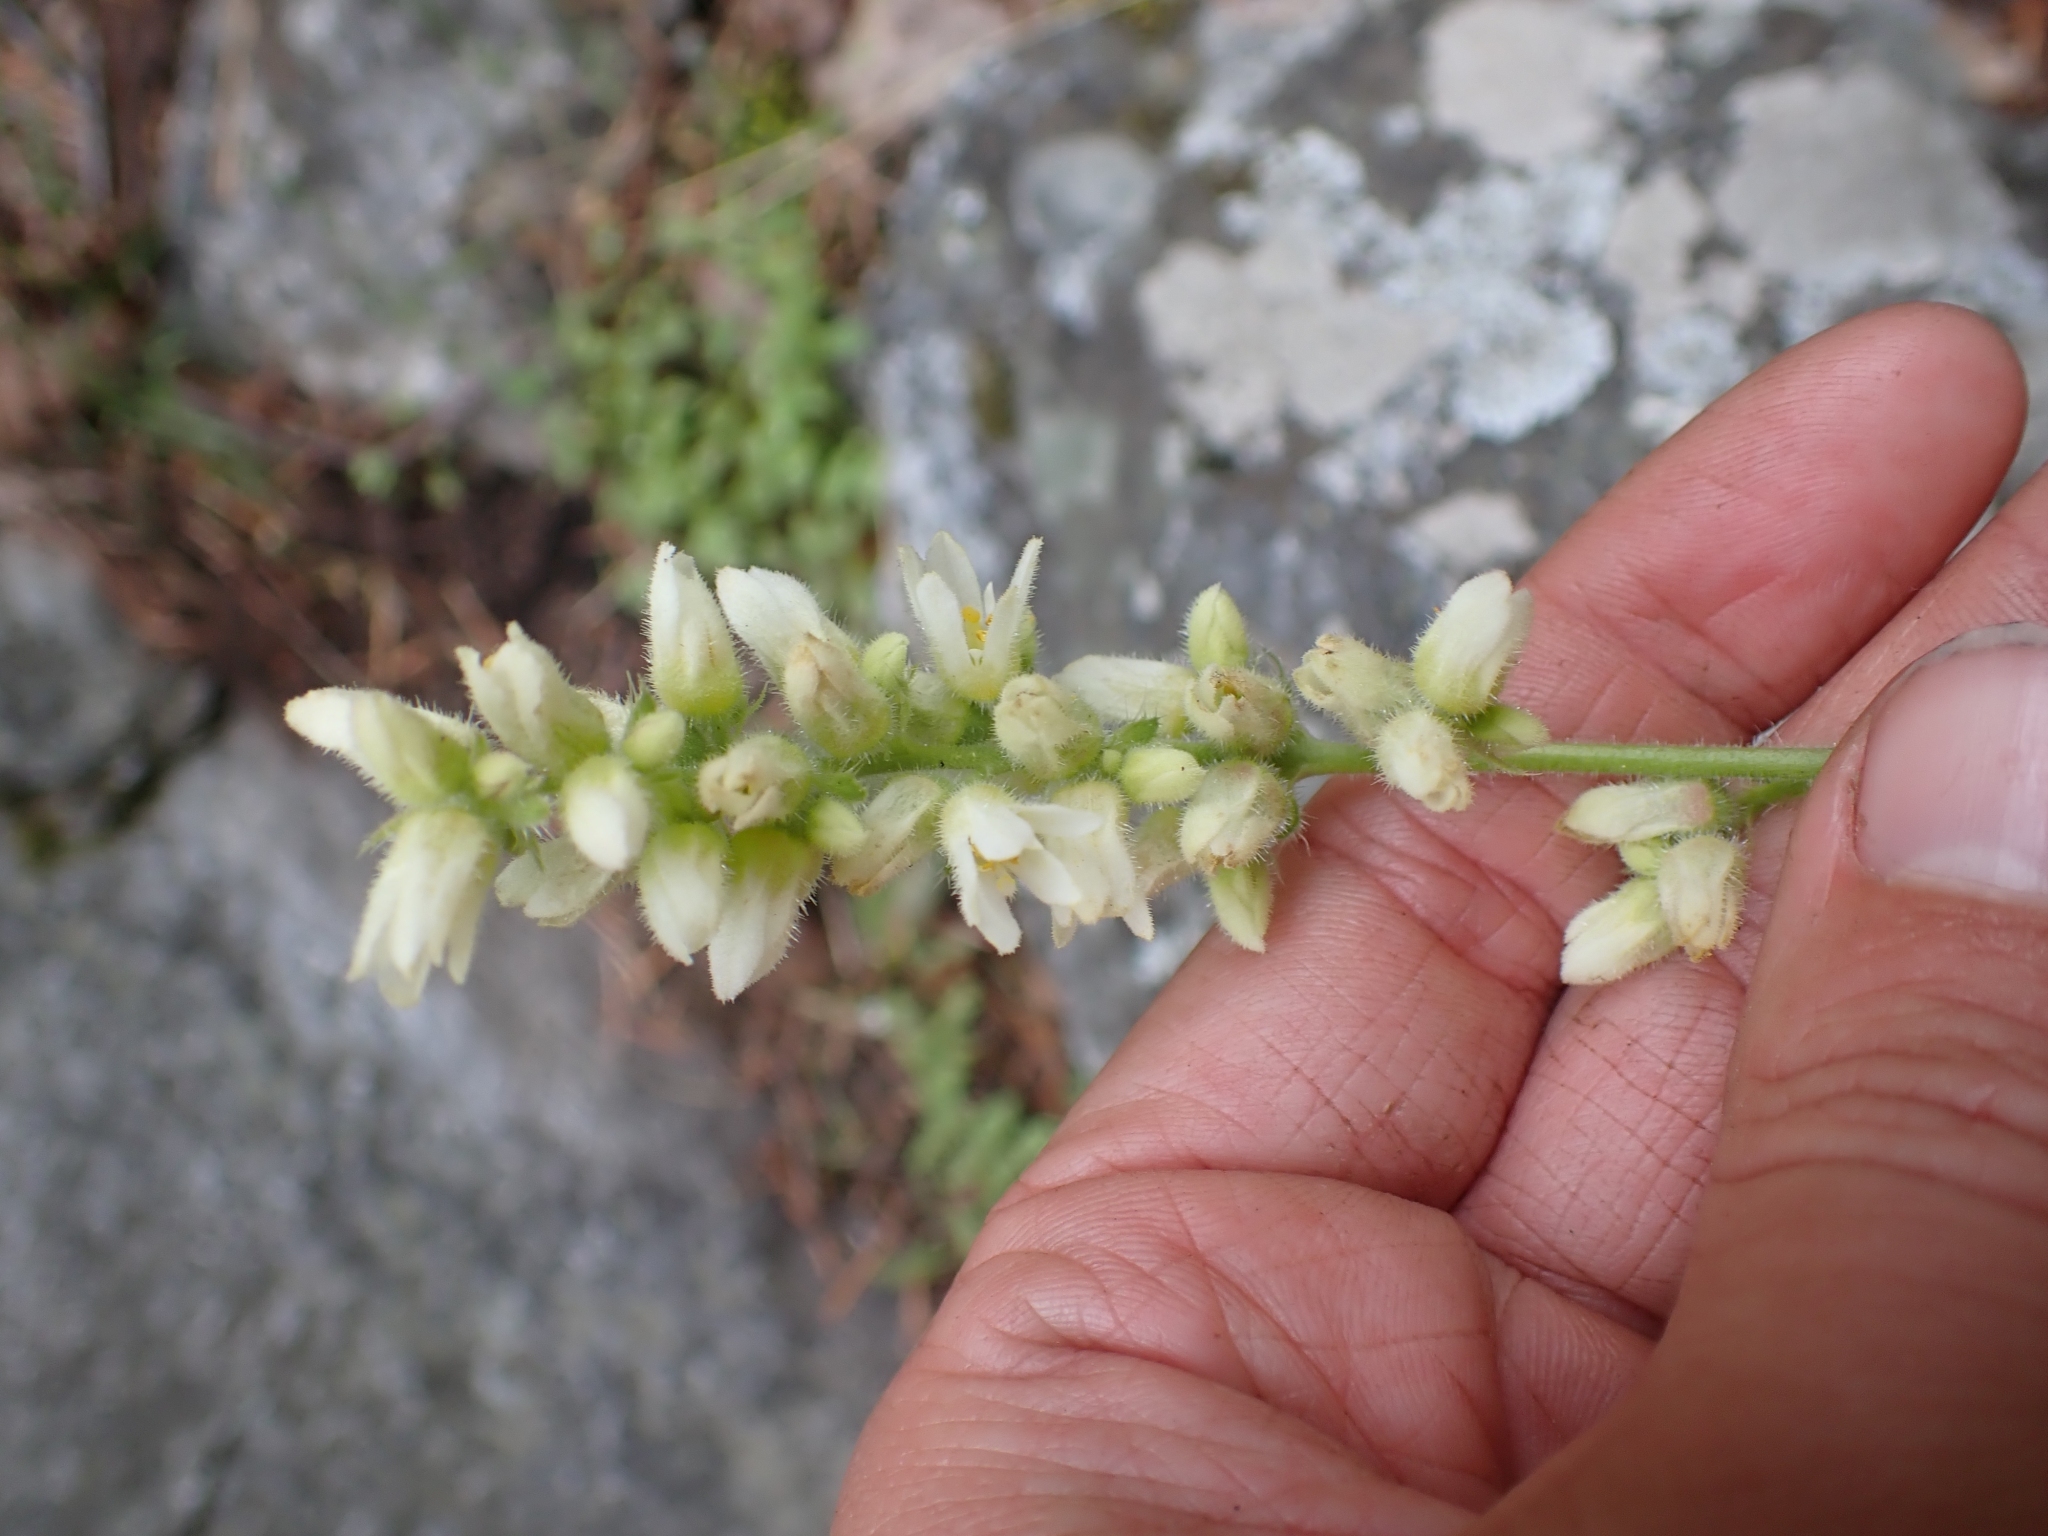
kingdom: Plantae
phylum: Tracheophyta
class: Magnoliopsida
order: Saxifragales
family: Saxifragaceae
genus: Heuchera
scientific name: Heuchera cylindrica
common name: Mat alumroot
